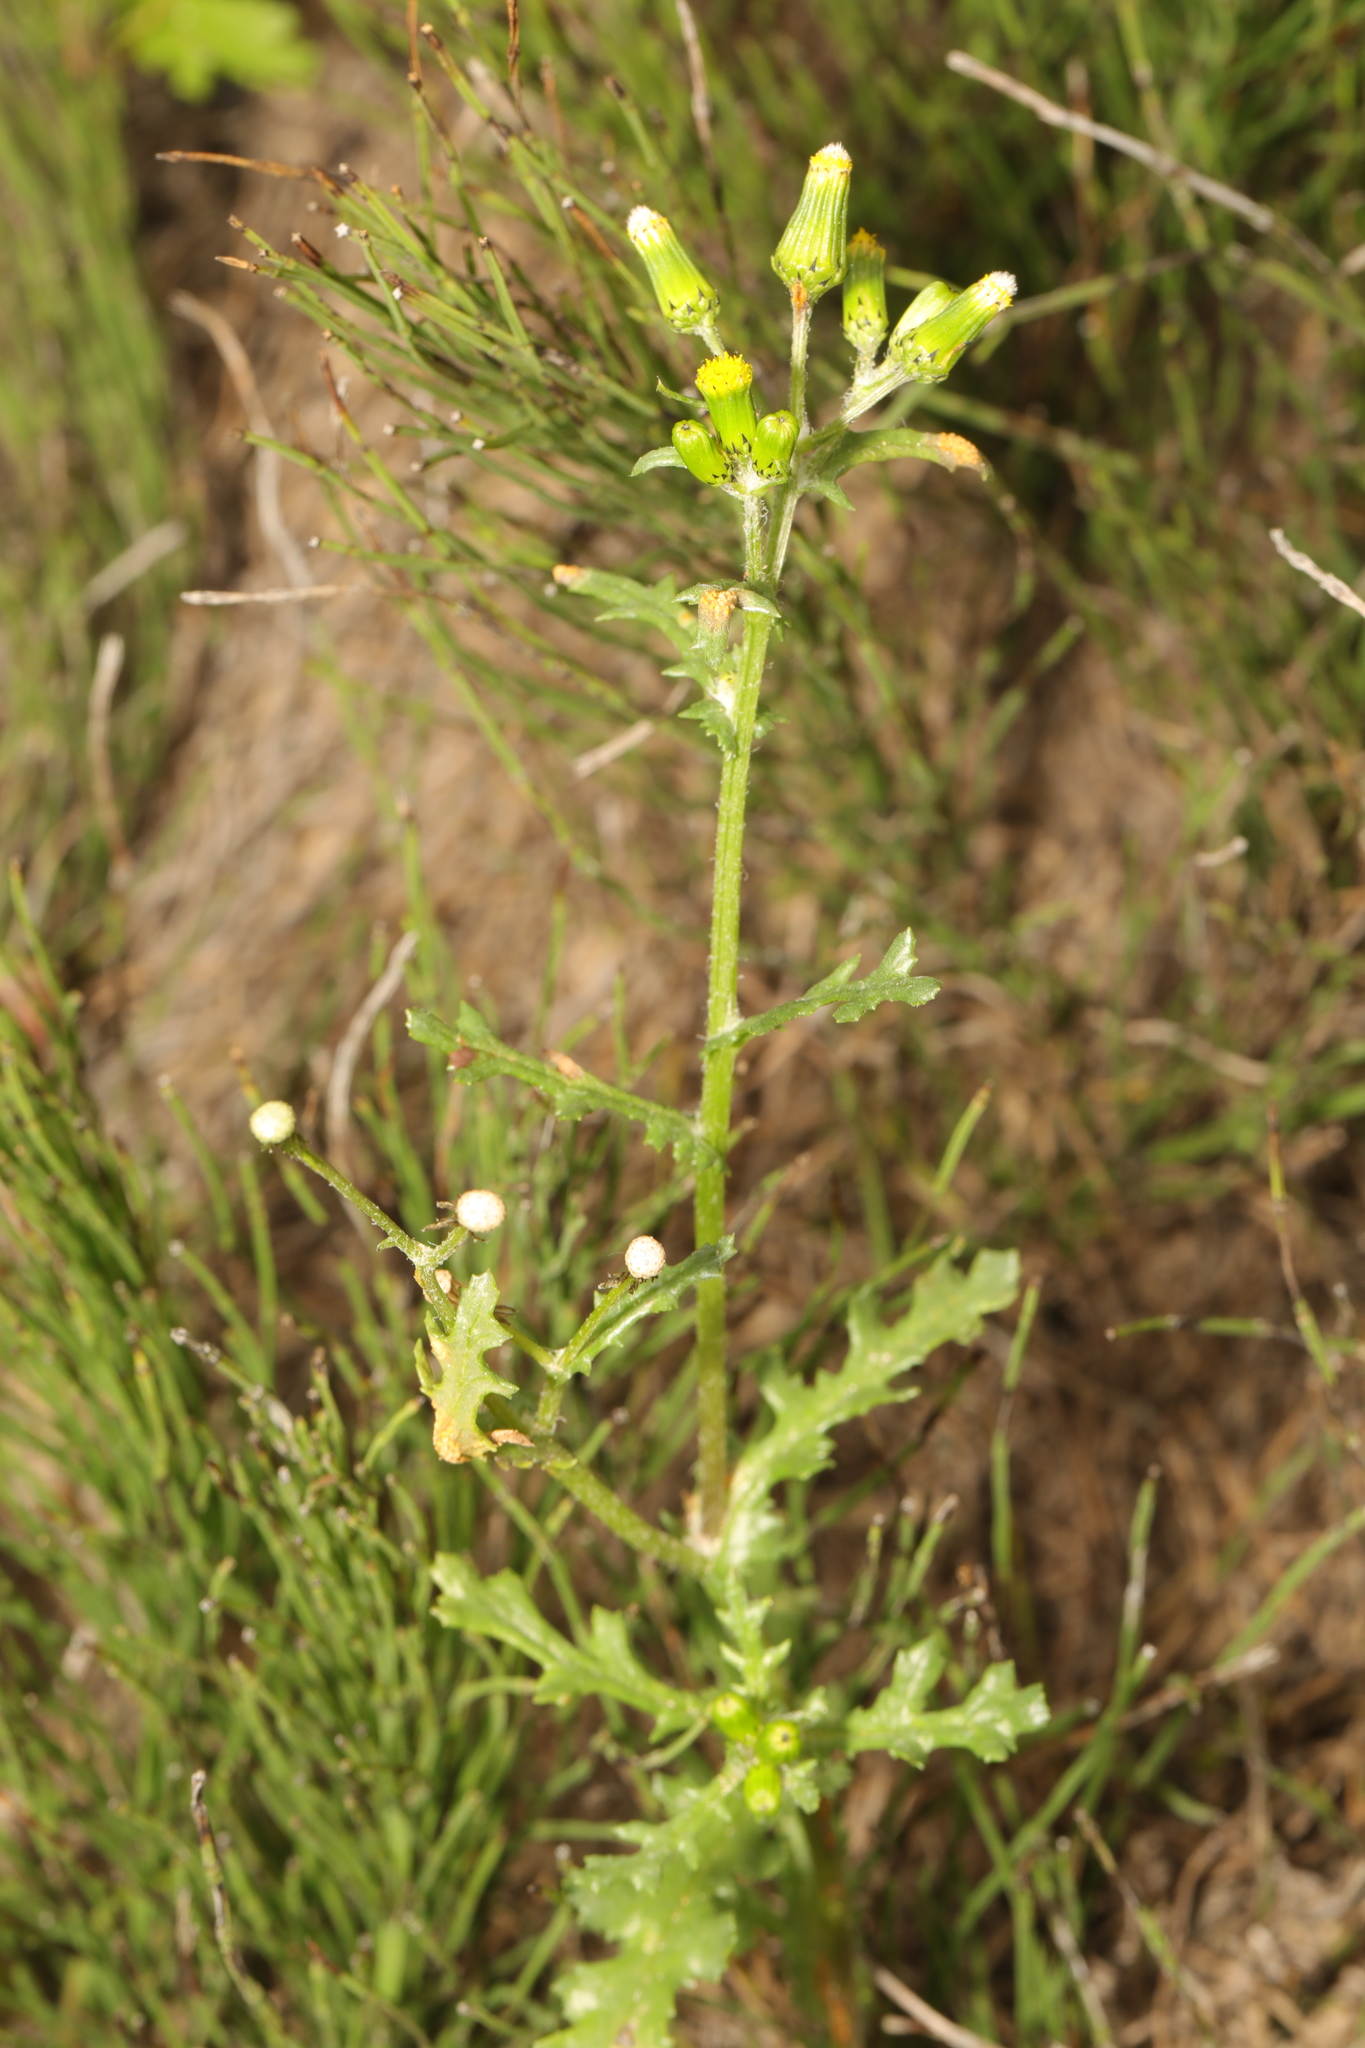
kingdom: Plantae
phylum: Tracheophyta
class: Magnoliopsida
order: Asterales
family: Asteraceae
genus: Senecio
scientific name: Senecio vulgaris
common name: Old-man-in-the-spring
